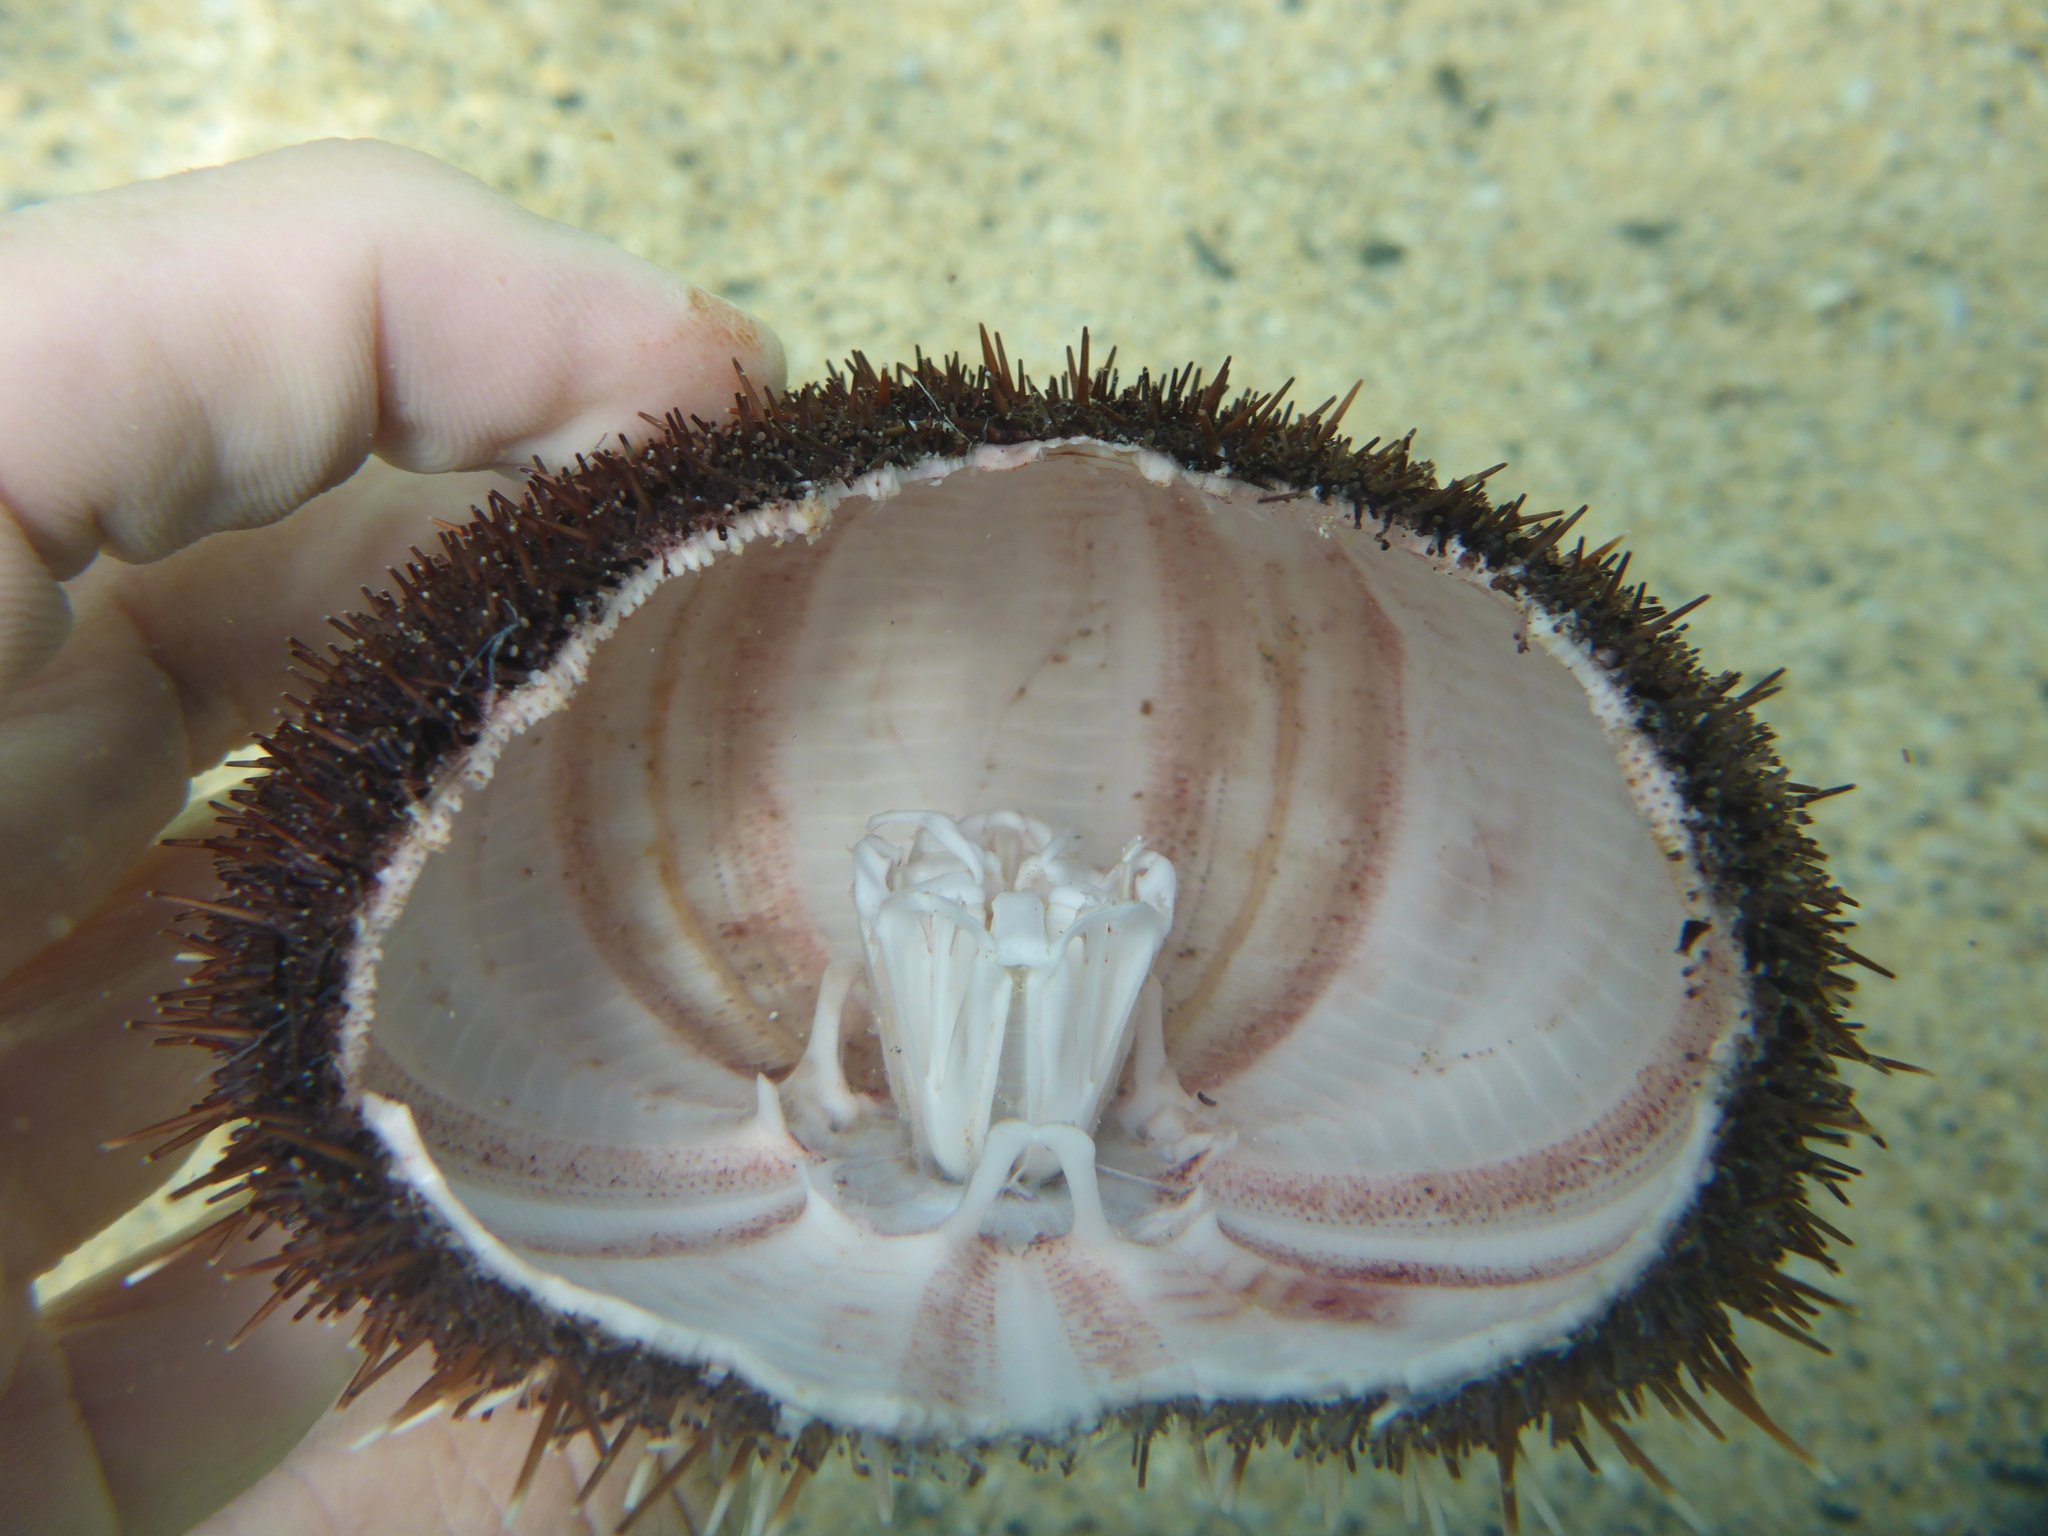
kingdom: Animalia
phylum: Echinodermata
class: Echinoidea
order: Camarodonta
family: Toxopneustidae
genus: Tripneustes
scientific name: Tripneustes gratilla
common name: Bischofsmützenseeigel
